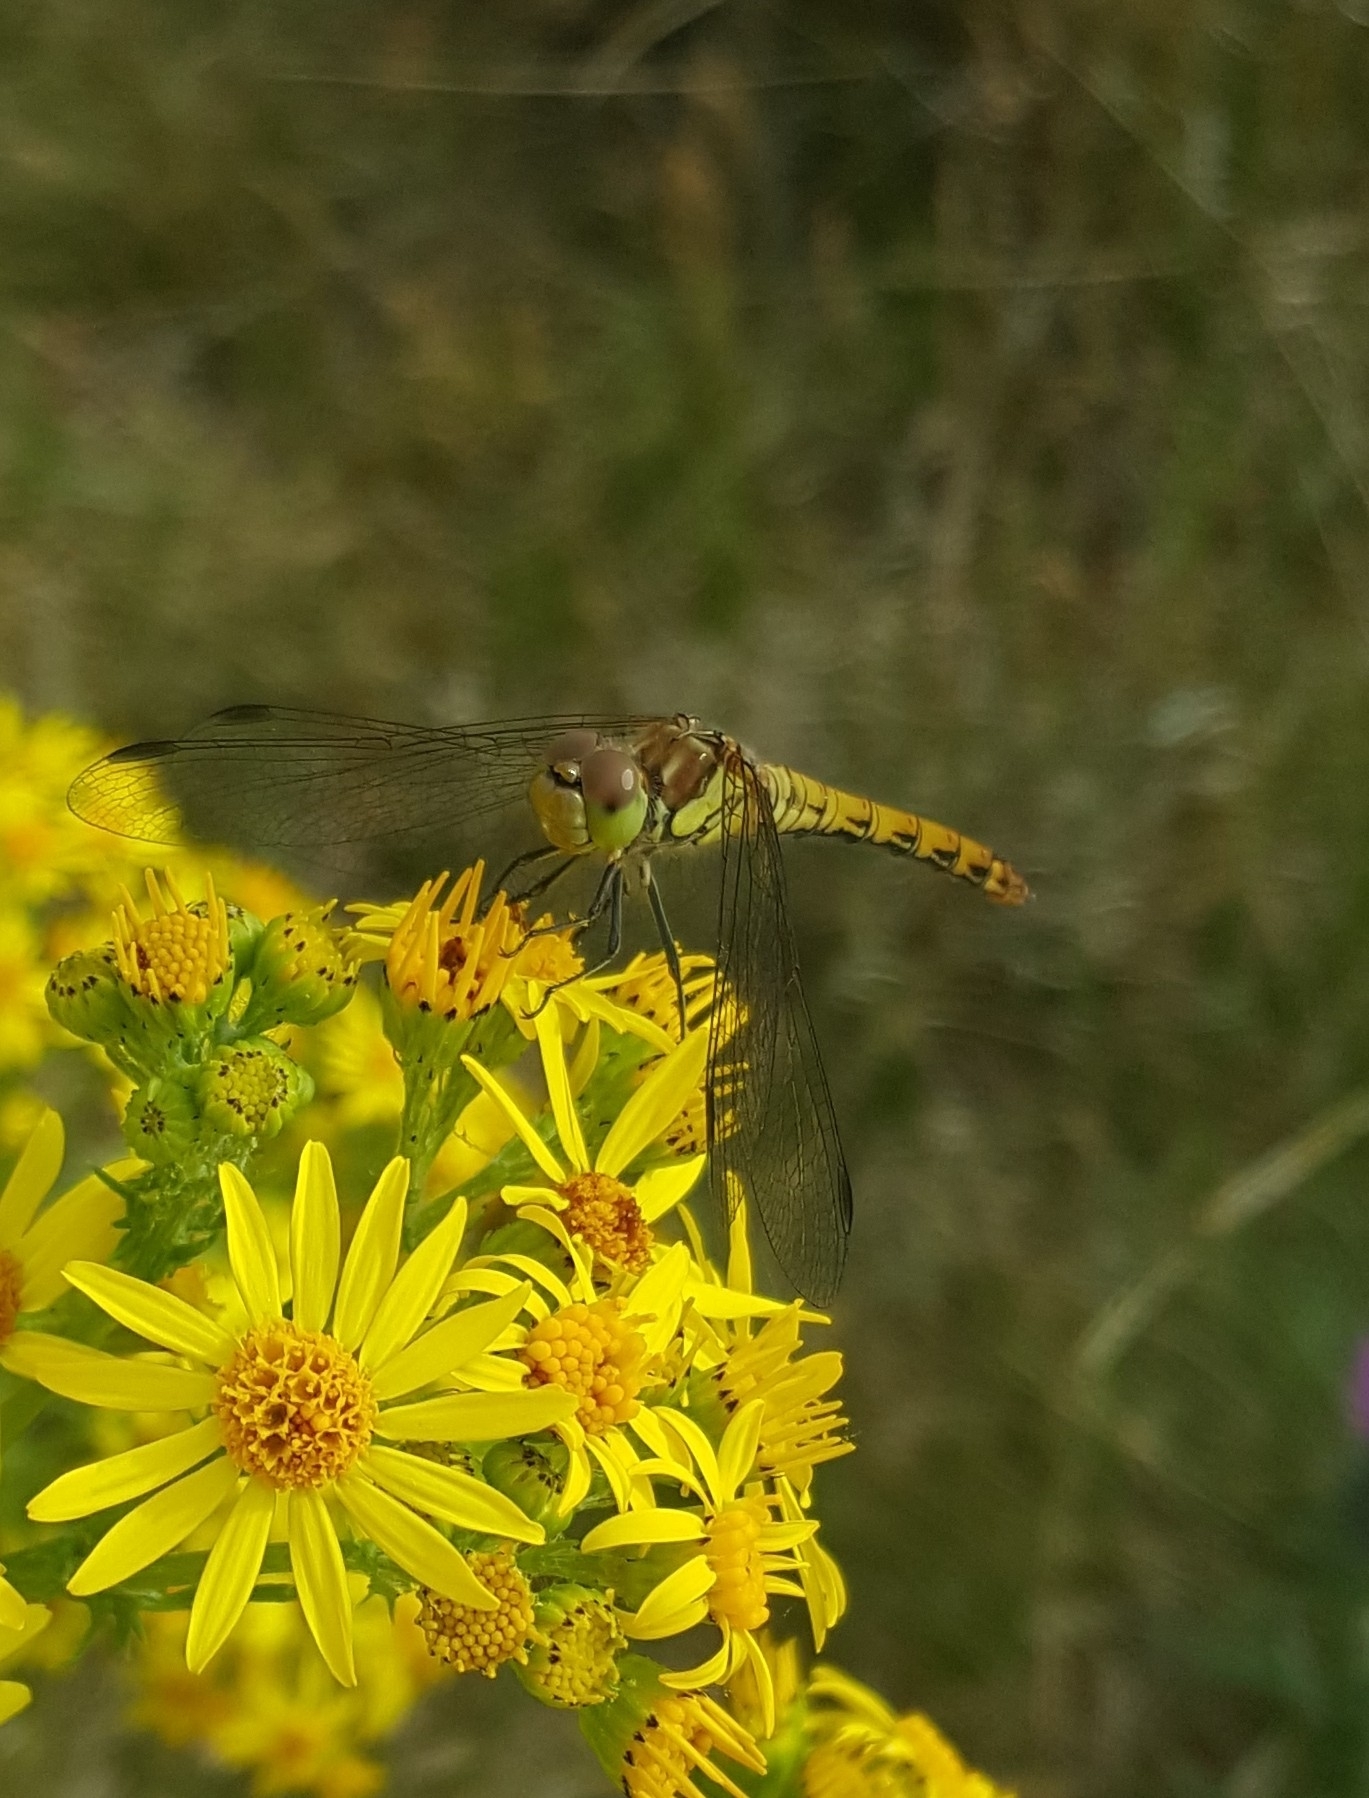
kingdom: Animalia
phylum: Arthropoda
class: Insecta
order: Odonata
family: Libellulidae
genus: Sympetrum
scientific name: Sympetrum striolatum
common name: Common darter
